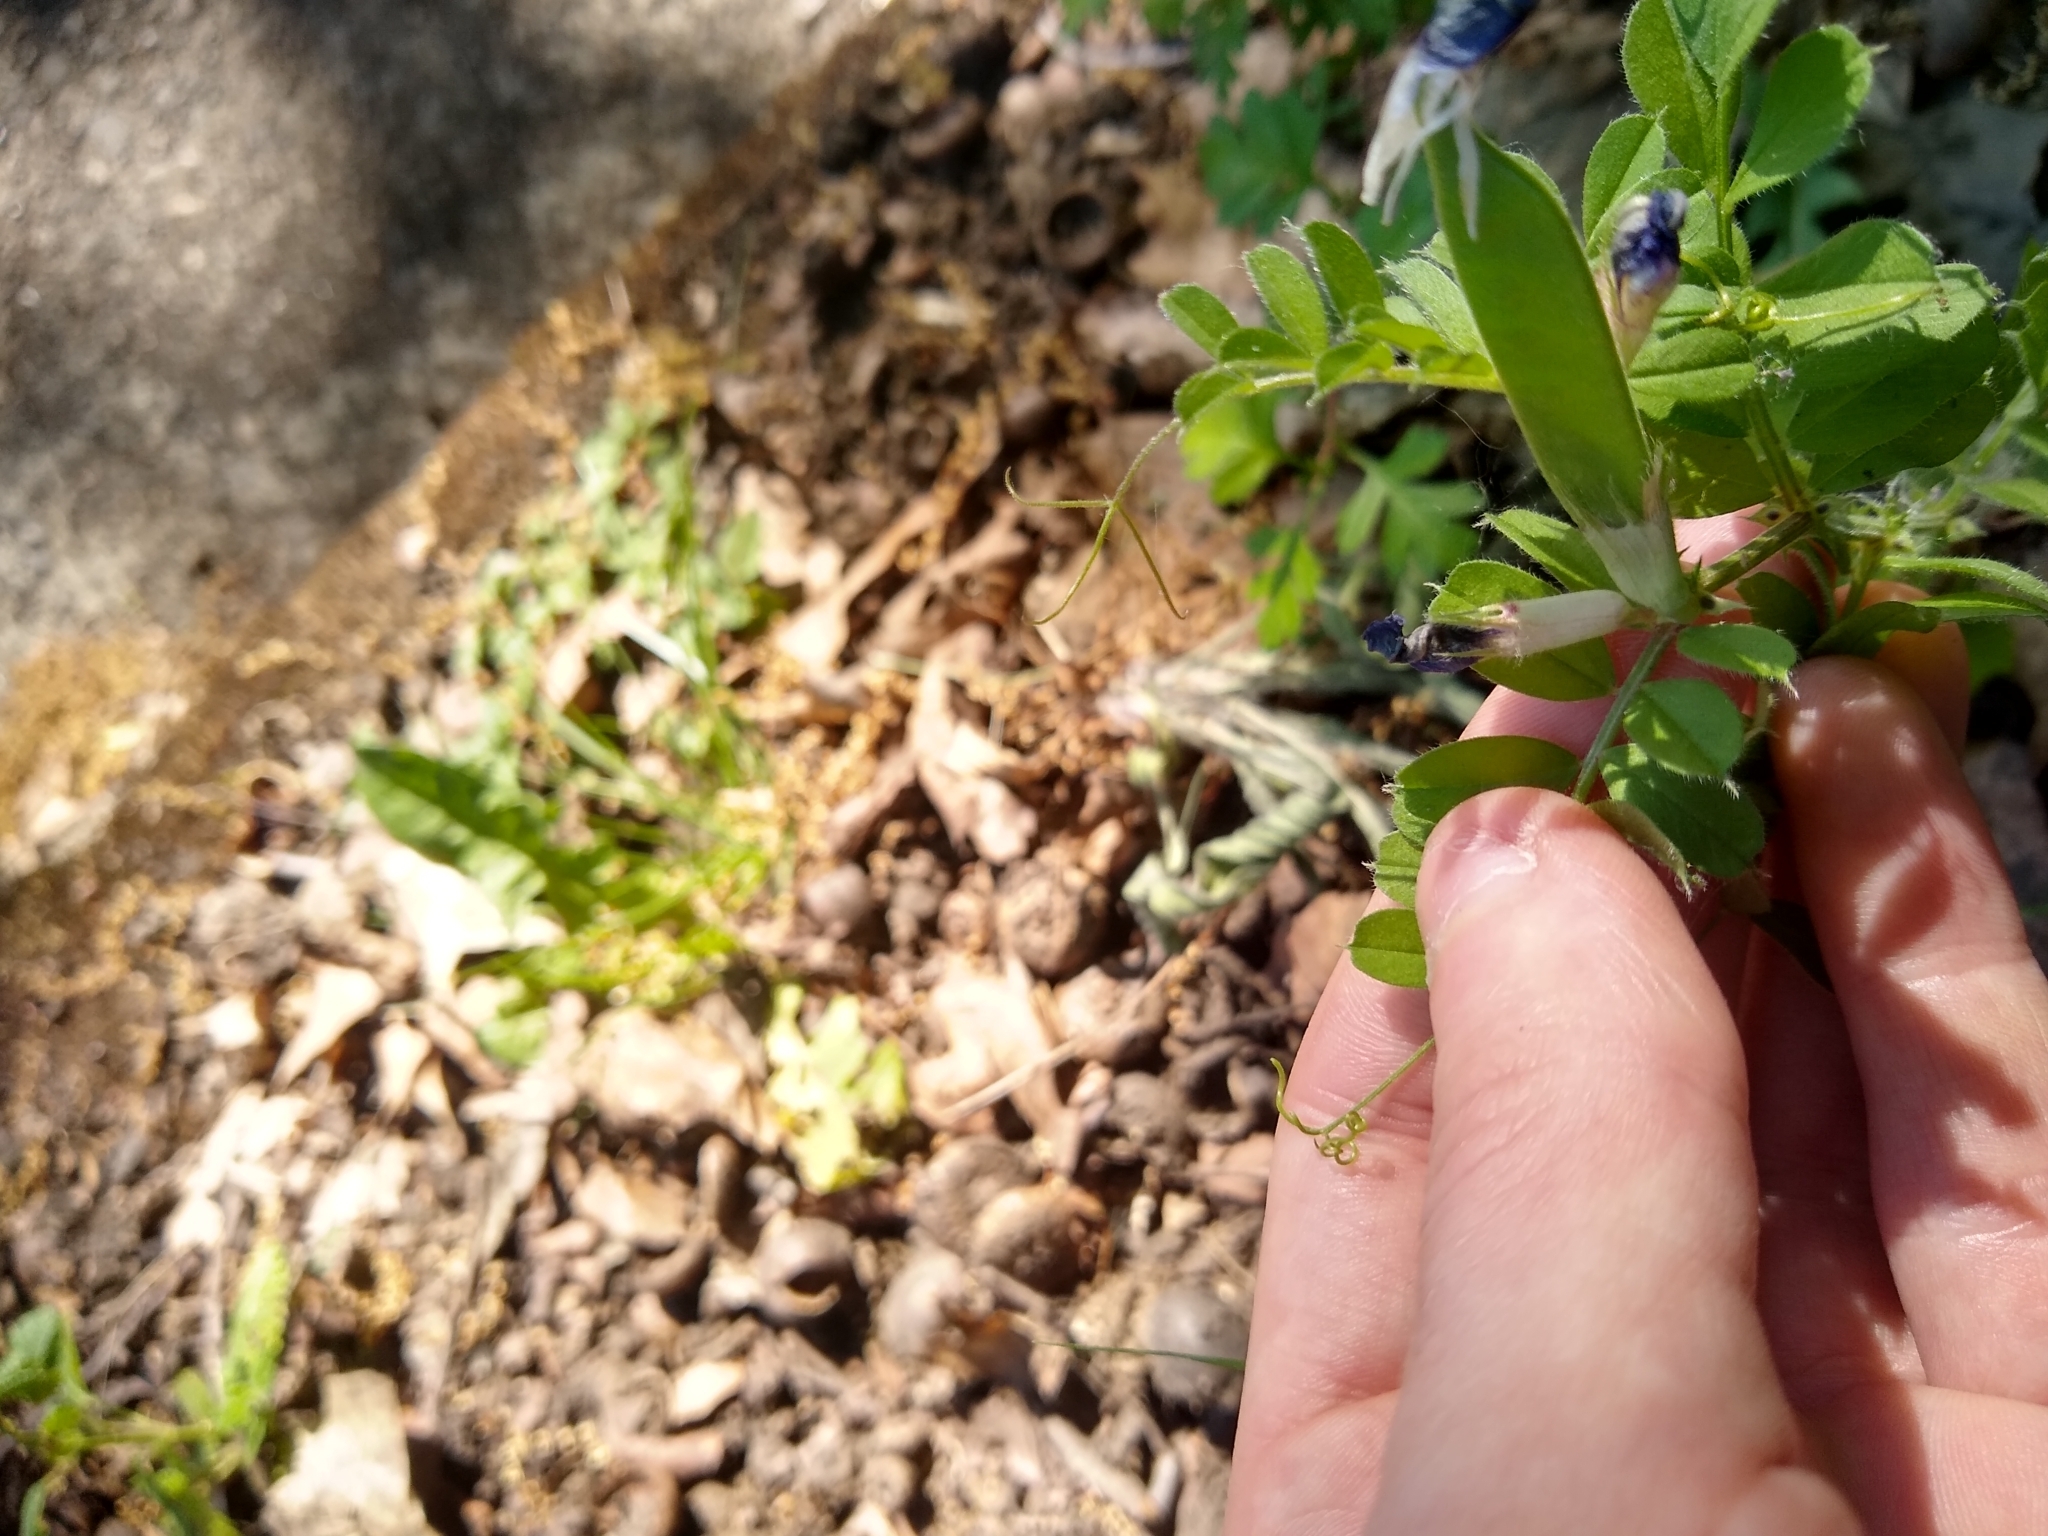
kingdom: Plantae
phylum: Tracheophyta
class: Magnoliopsida
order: Fabales
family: Fabaceae
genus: Vicia
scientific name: Vicia sativa
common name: Garden vetch
